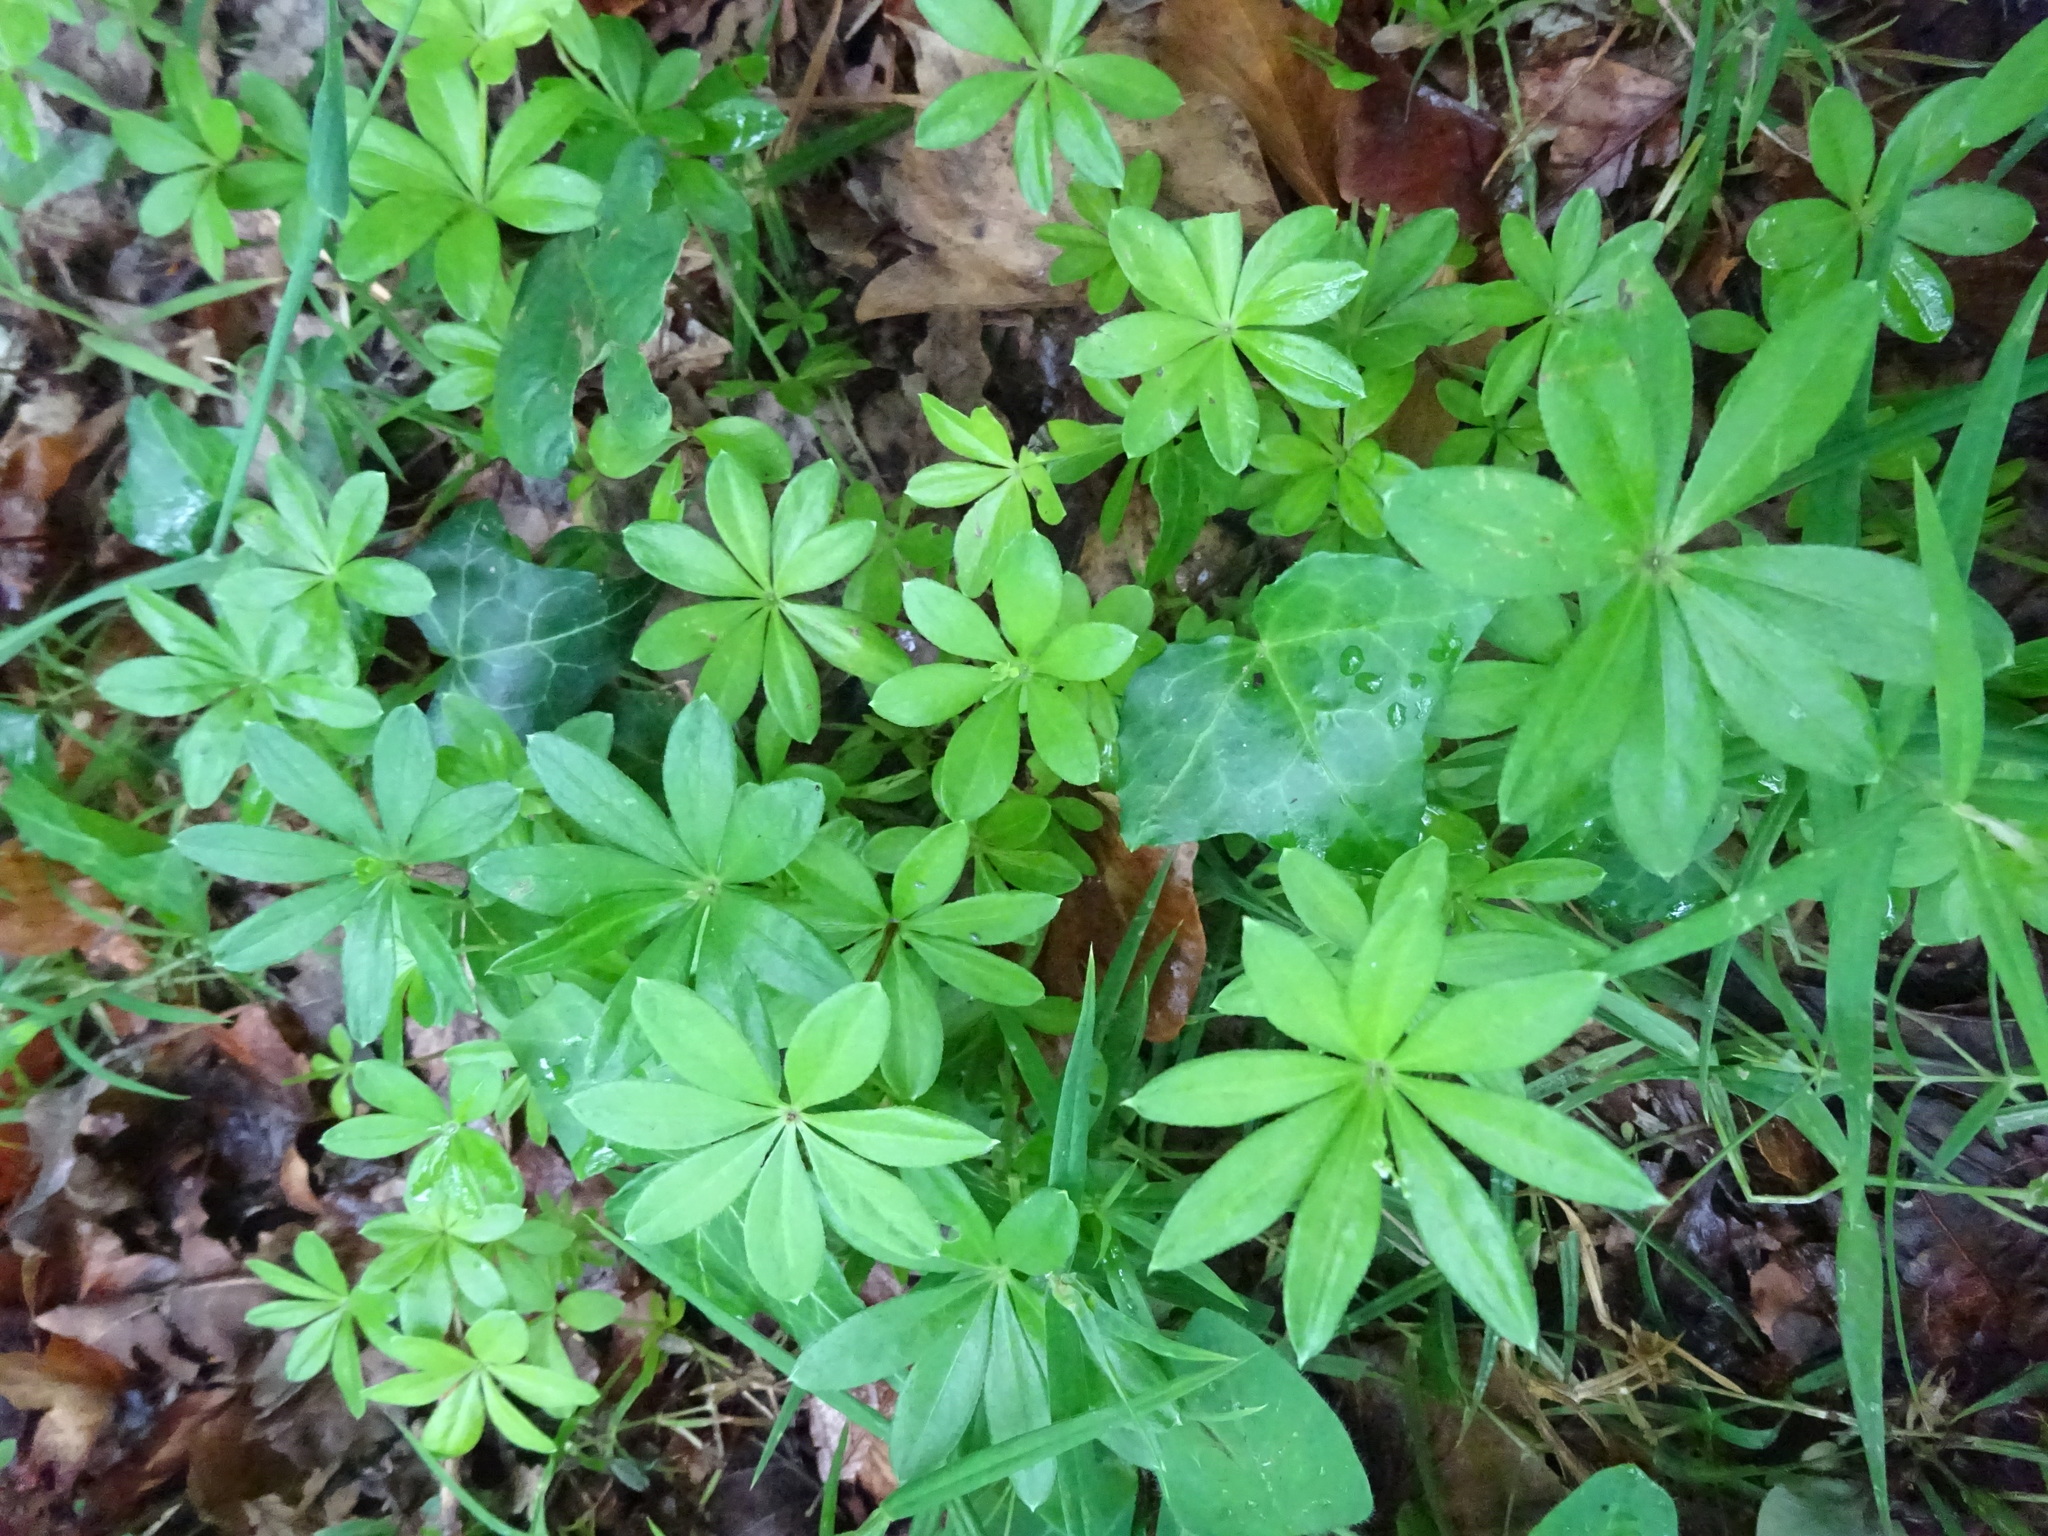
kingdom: Plantae
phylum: Tracheophyta
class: Magnoliopsida
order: Gentianales
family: Rubiaceae
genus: Galium
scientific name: Galium odoratum
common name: Sweet woodruff
